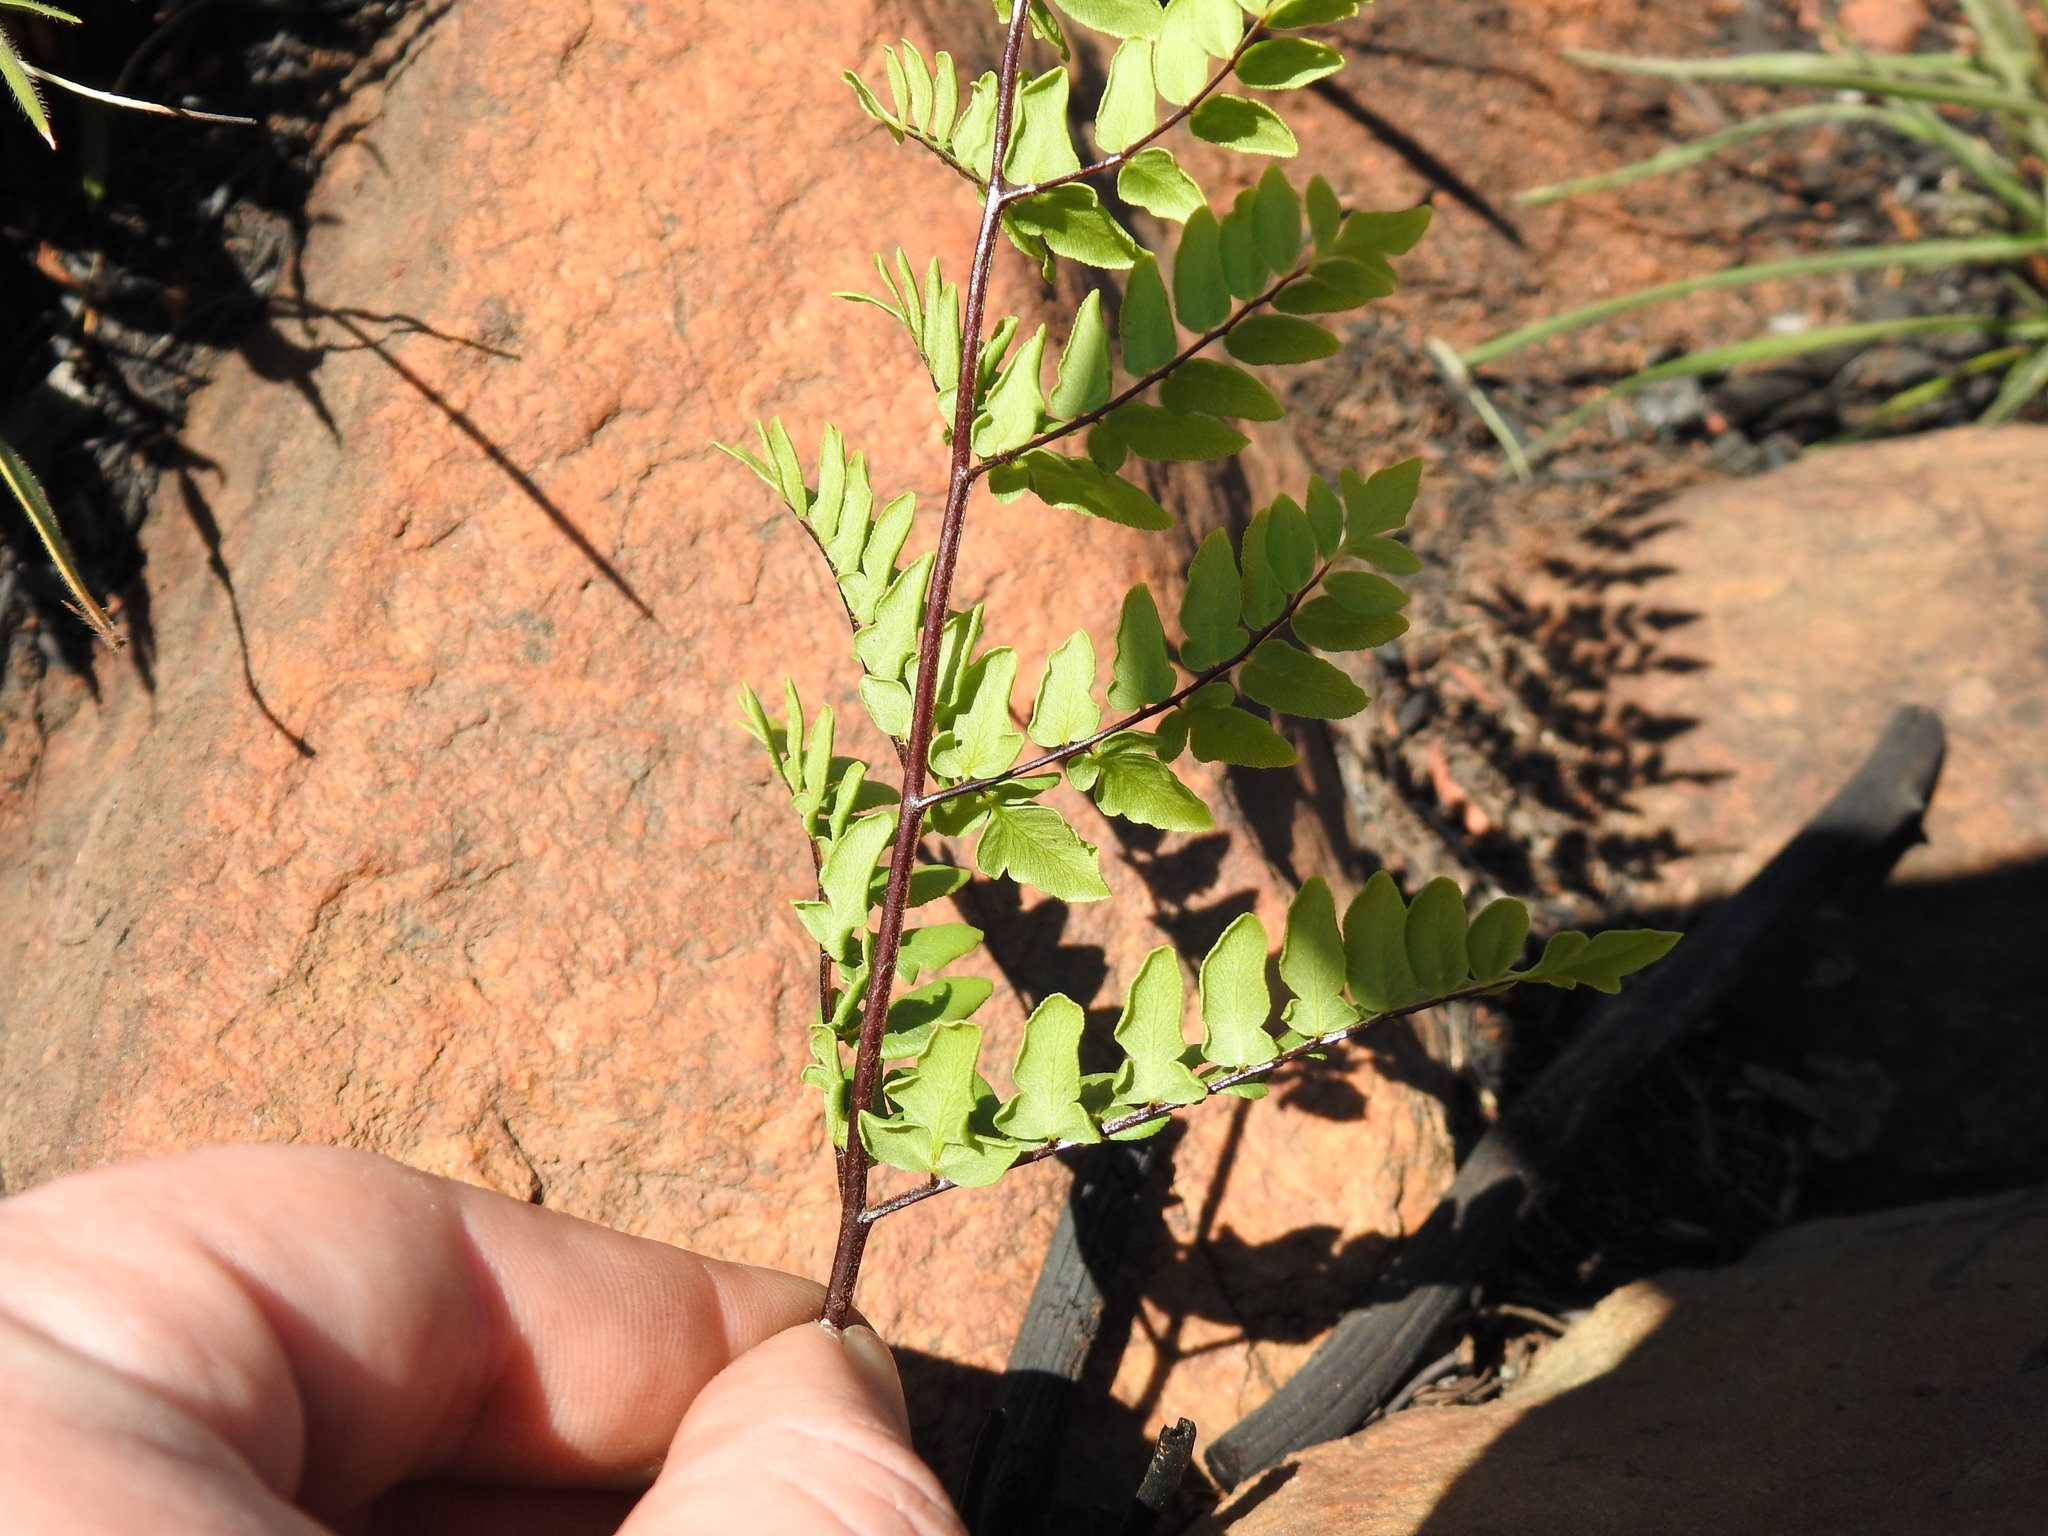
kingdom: Plantae
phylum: Tracheophyta
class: Polypodiopsida
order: Polypodiales
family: Pteridaceae
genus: Cheilanthes
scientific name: Cheilanthes viridis
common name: Green cliffbrake
